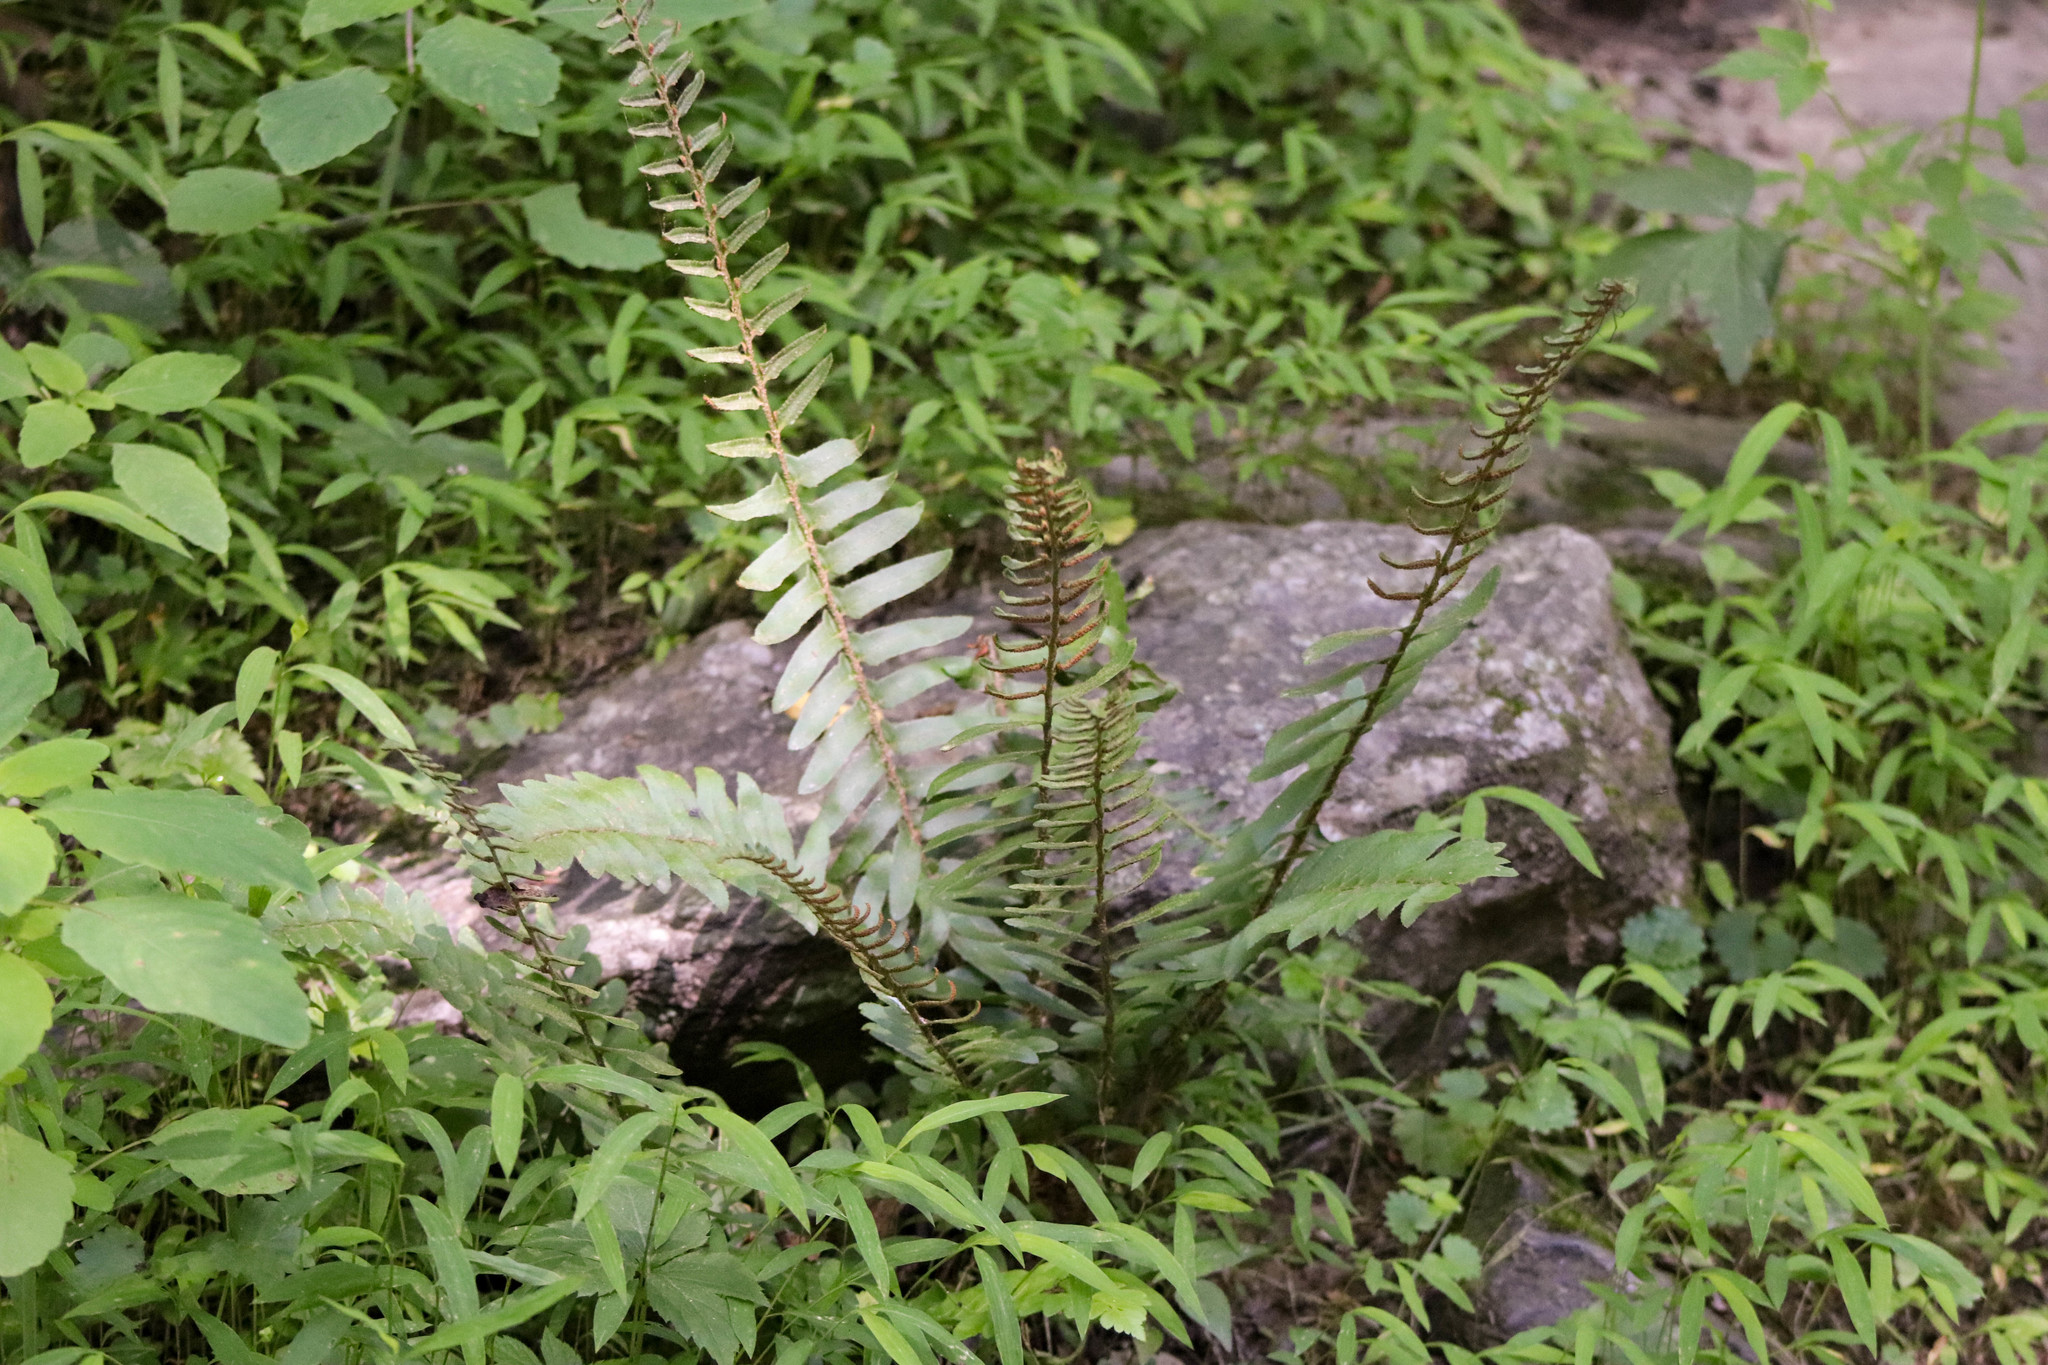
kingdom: Plantae
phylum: Tracheophyta
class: Polypodiopsida
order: Polypodiales
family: Dryopteridaceae
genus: Polystichum
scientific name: Polystichum acrostichoides
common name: Christmas fern
